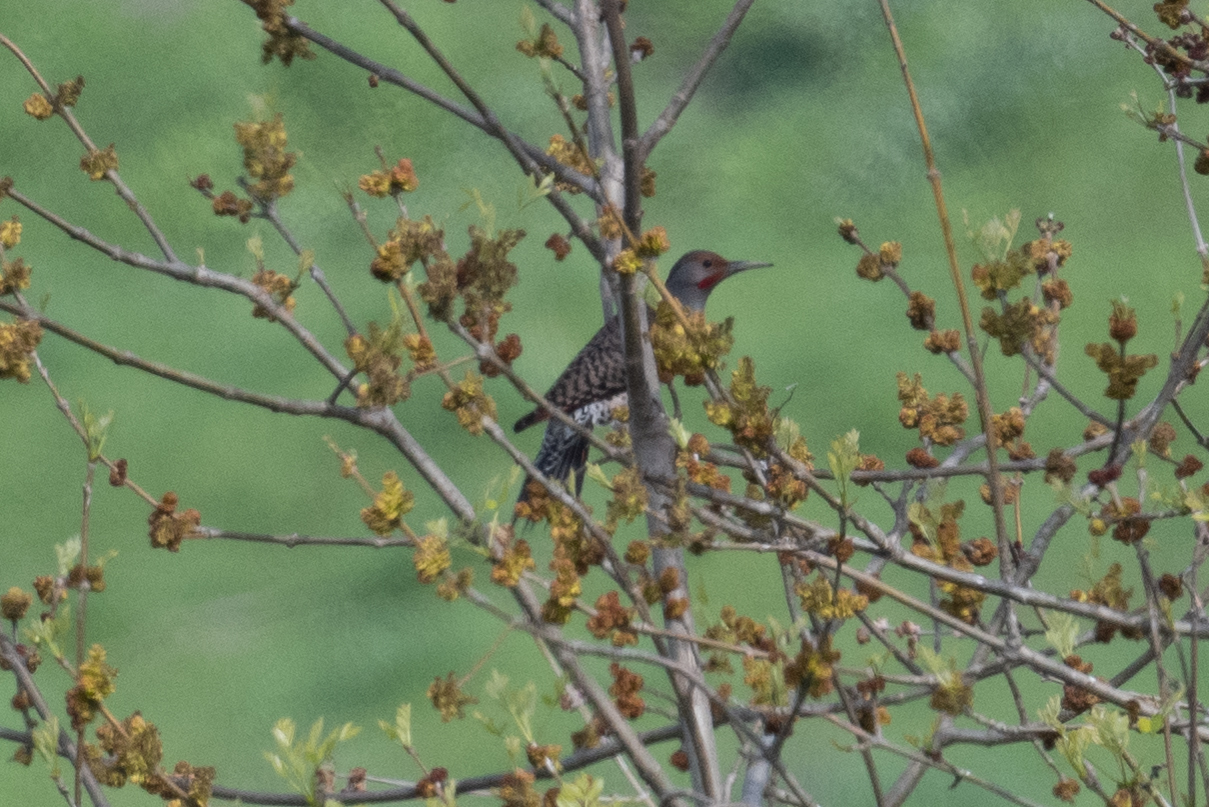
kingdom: Animalia
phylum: Chordata
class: Aves
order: Piciformes
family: Picidae
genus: Colaptes
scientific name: Colaptes auratus
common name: Northern flicker
